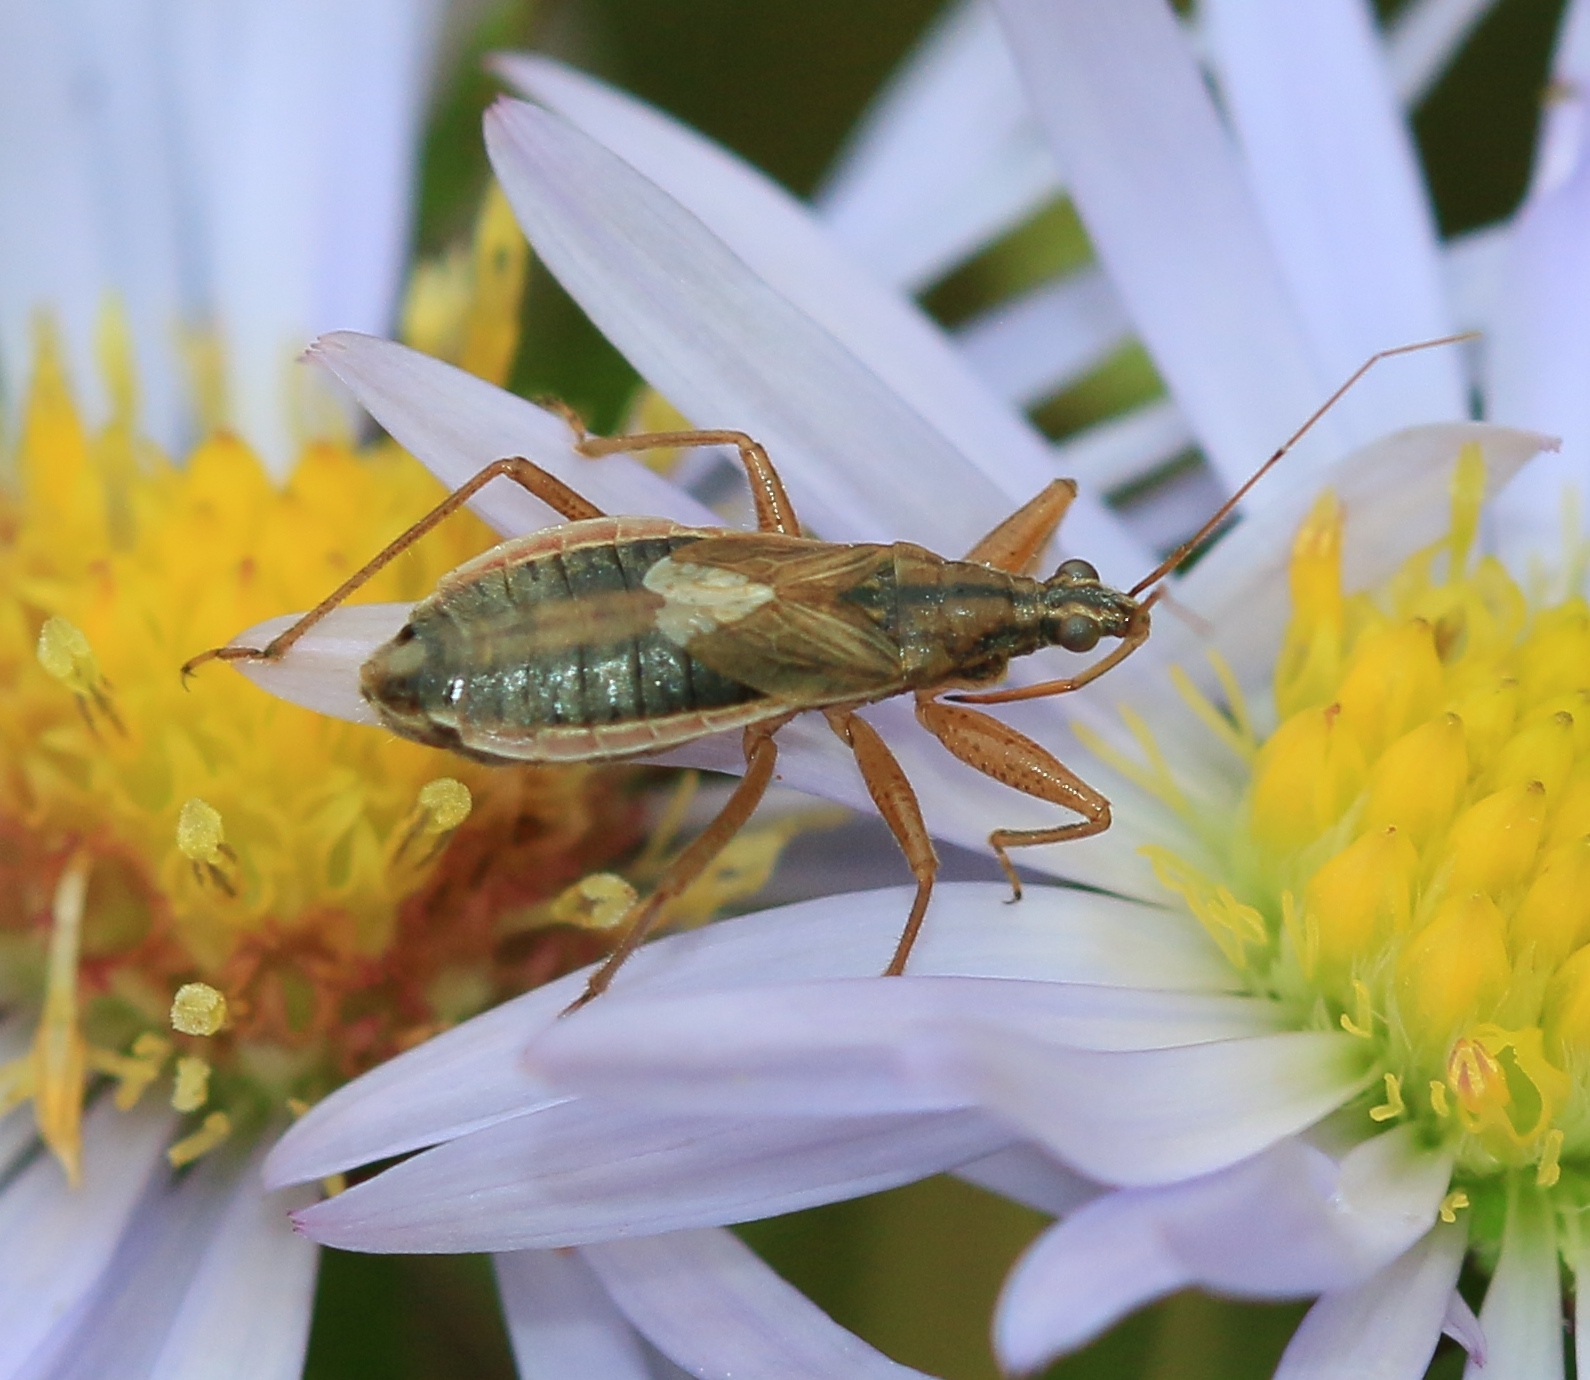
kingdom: Animalia
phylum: Arthropoda
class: Insecta
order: Hemiptera
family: Nabidae
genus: Nabis
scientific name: Nabis flavomarginatus
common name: Broad damselbug
